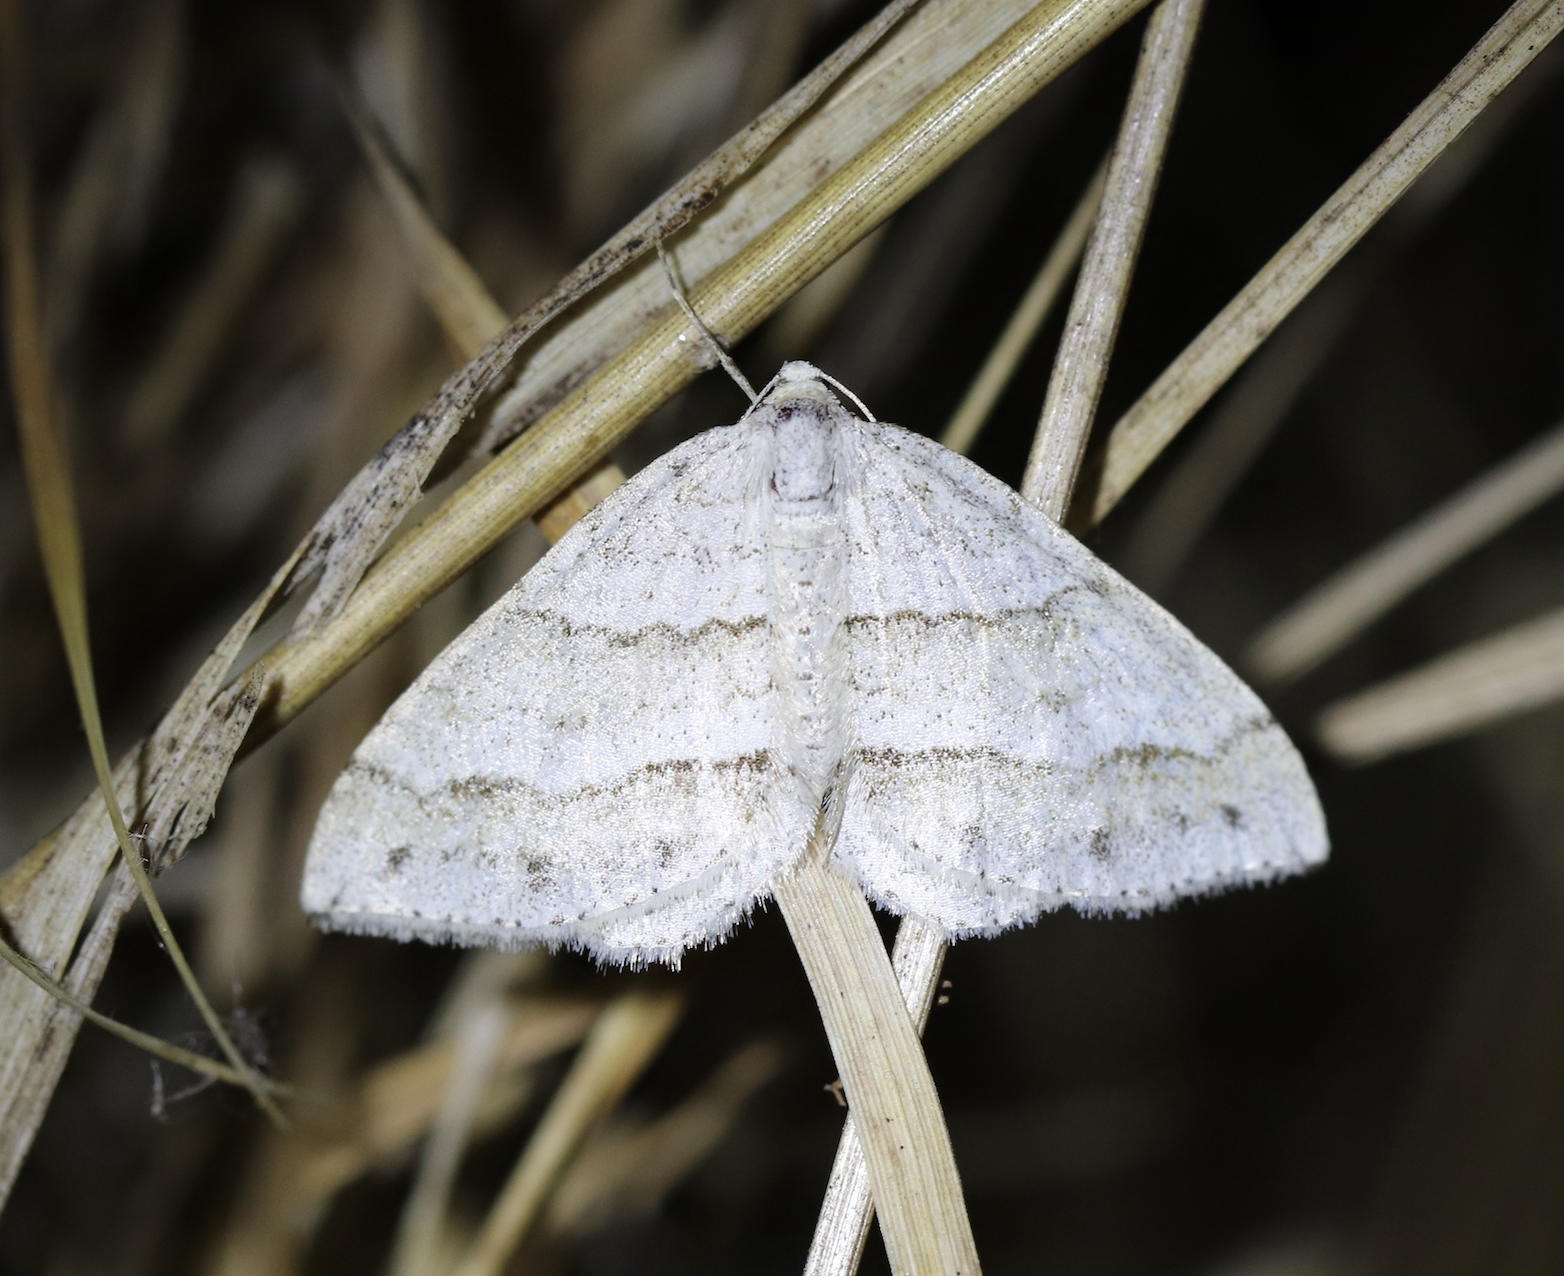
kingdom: Animalia
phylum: Arthropoda
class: Insecta
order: Lepidoptera
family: Geometridae
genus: Perizoma
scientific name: Perizoma parallelolineata
